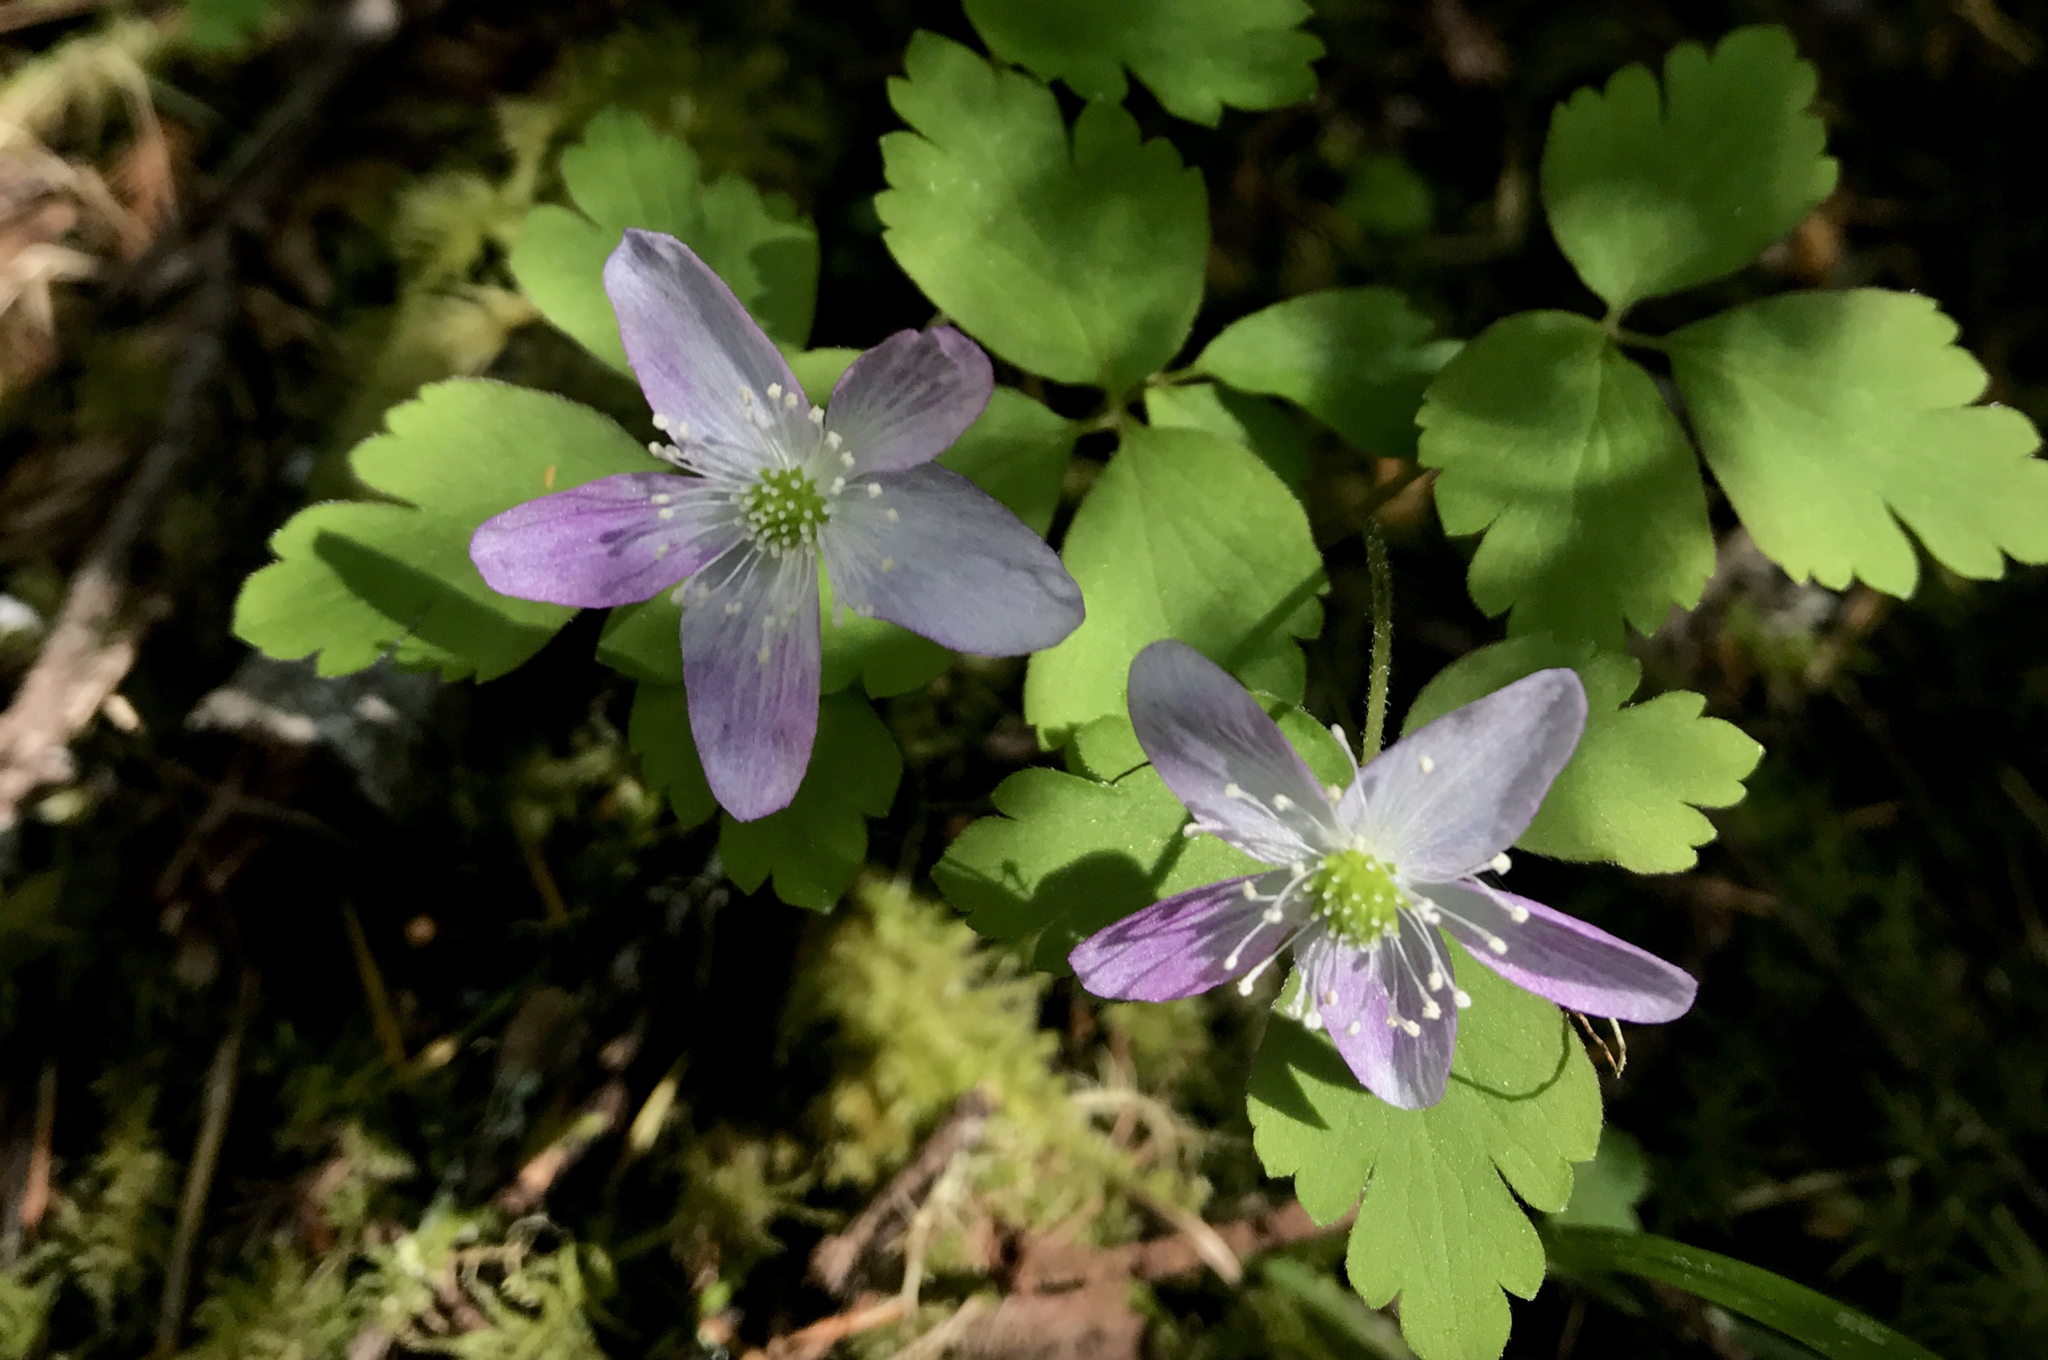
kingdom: Plantae
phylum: Tracheophyta
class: Magnoliopsida
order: Ranunculales
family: Ranunculaceae
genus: Anemone
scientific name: Anemone oregana
